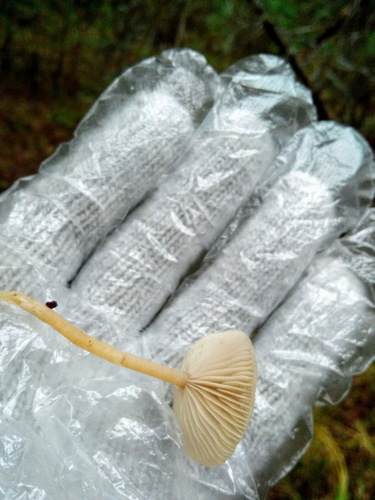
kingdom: Fungi
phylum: Basidiomycota
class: Agaricomycetes
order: Agaricales
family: Tricholomataceae
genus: Clitocybe
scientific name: Clitocybe
